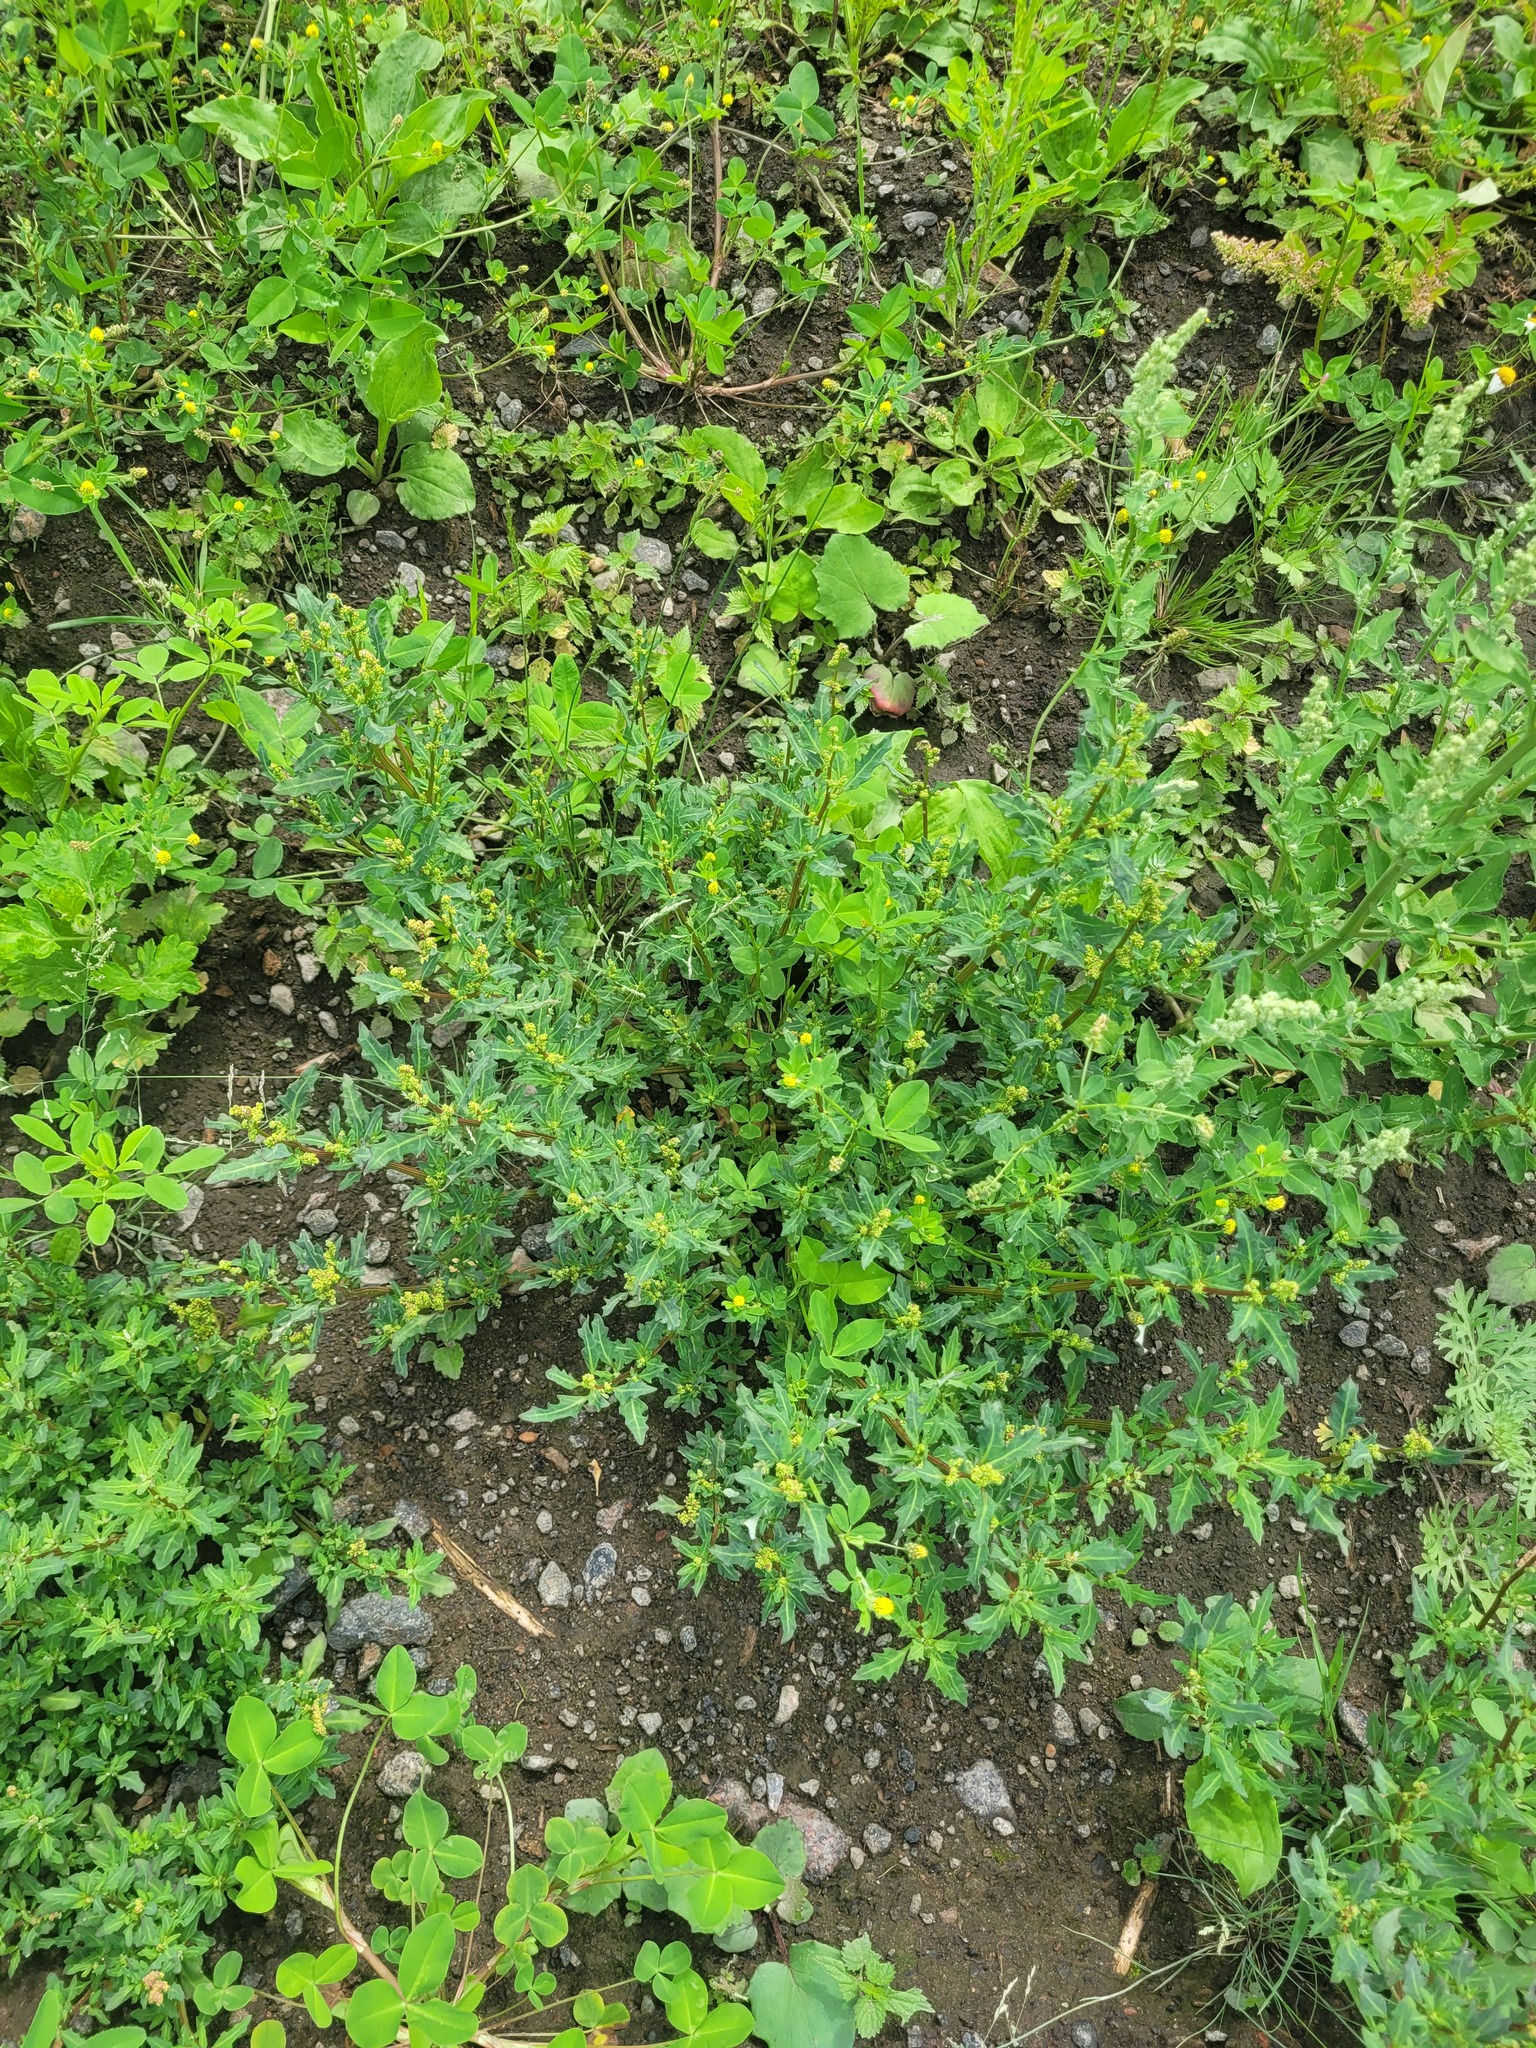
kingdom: Plantae
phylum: Tracheophyta
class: Magnoliopsida
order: Caryophyllales
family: Amaranthaceae
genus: Oxybasis
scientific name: Oxybasis glauca
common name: Glaucous goosefoot
